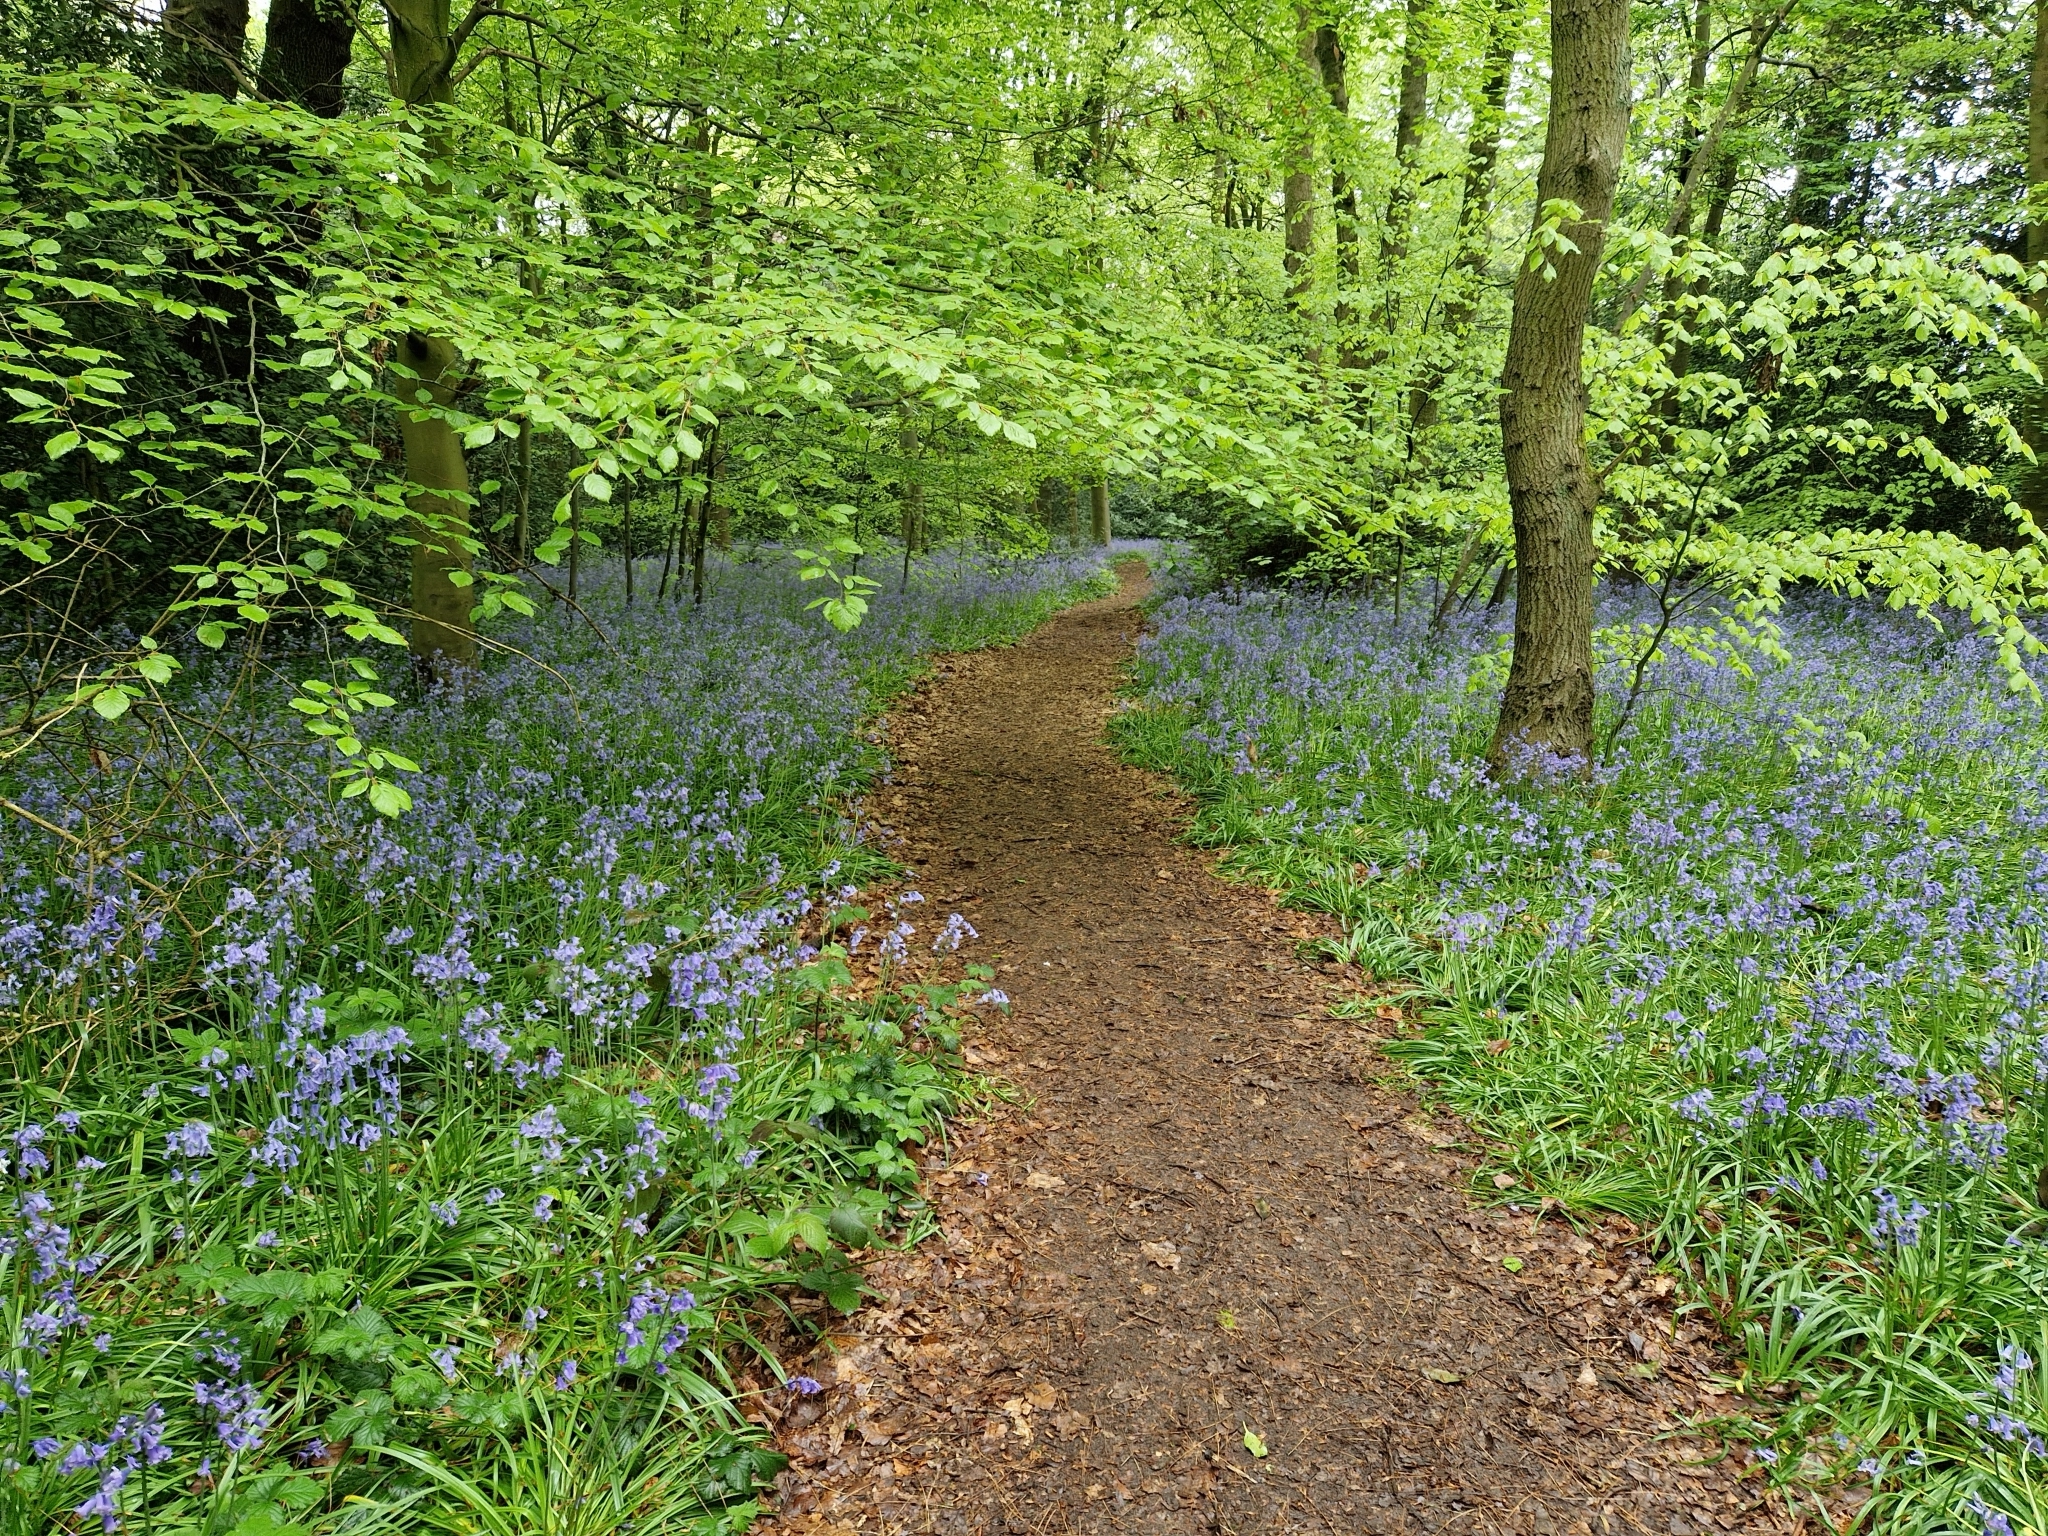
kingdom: Plantae
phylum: Tracheophyta
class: Liliopsida
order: Asparagales
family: Asparagaceae
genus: Hyacinthoides
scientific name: Hyacinthoides non-scripta
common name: Bluebell
